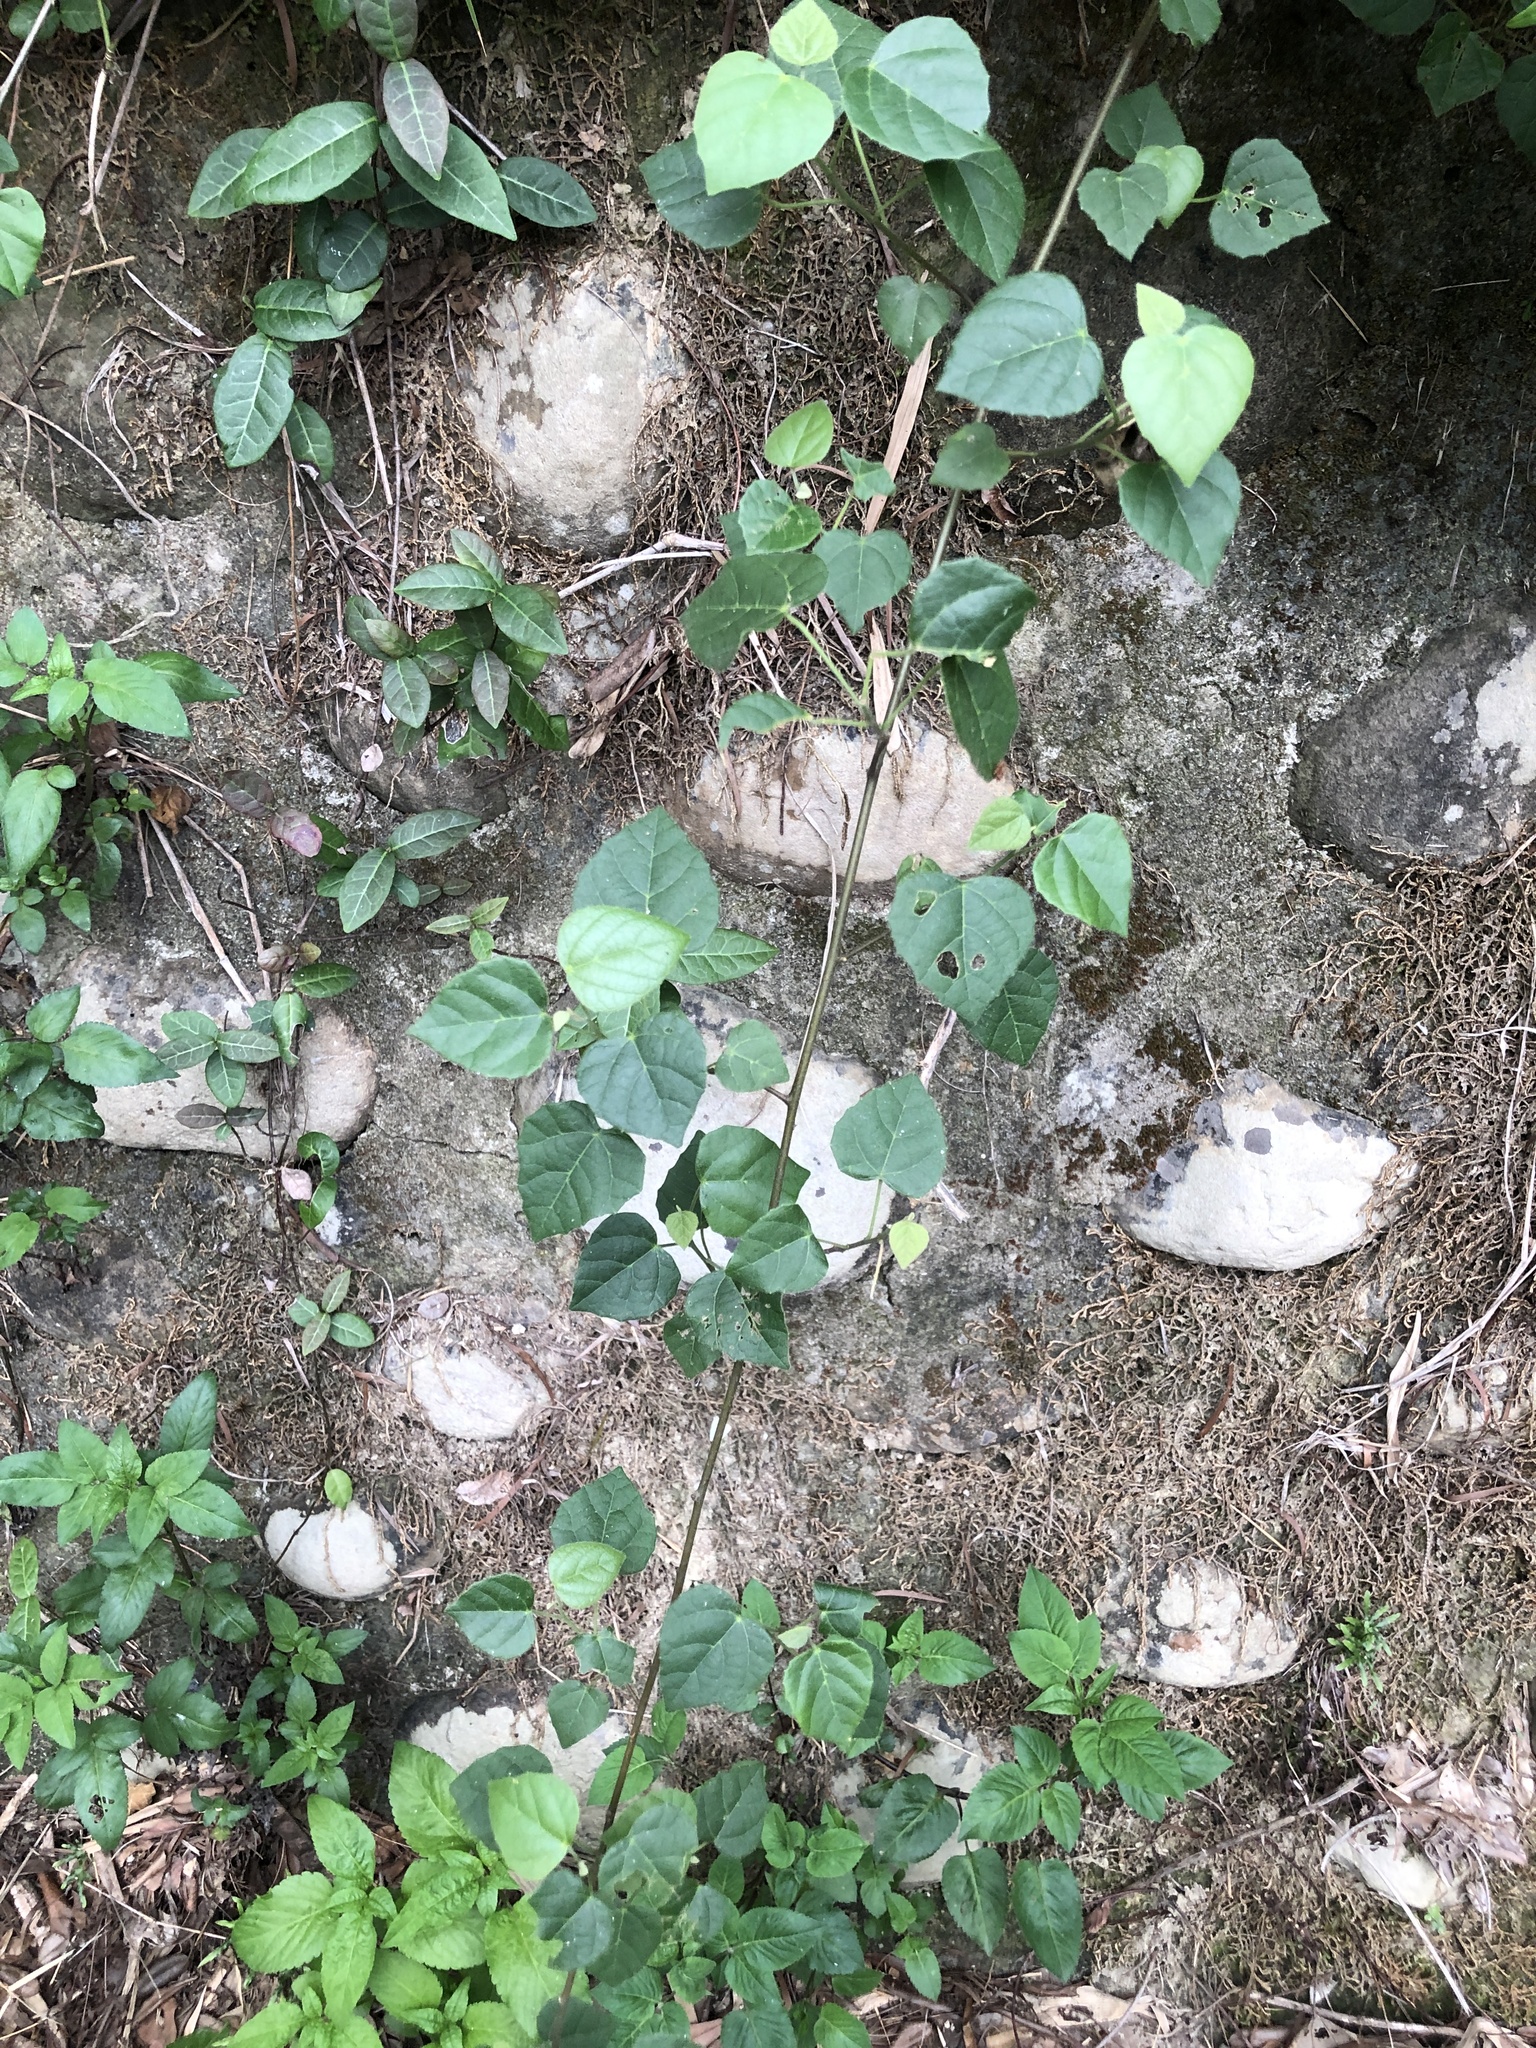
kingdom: Plantae
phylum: Tracheophyta
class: Magnoliopsida
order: Malpighiales
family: Euphorbiaceae
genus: Mallotus
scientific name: Mallotus repandus
